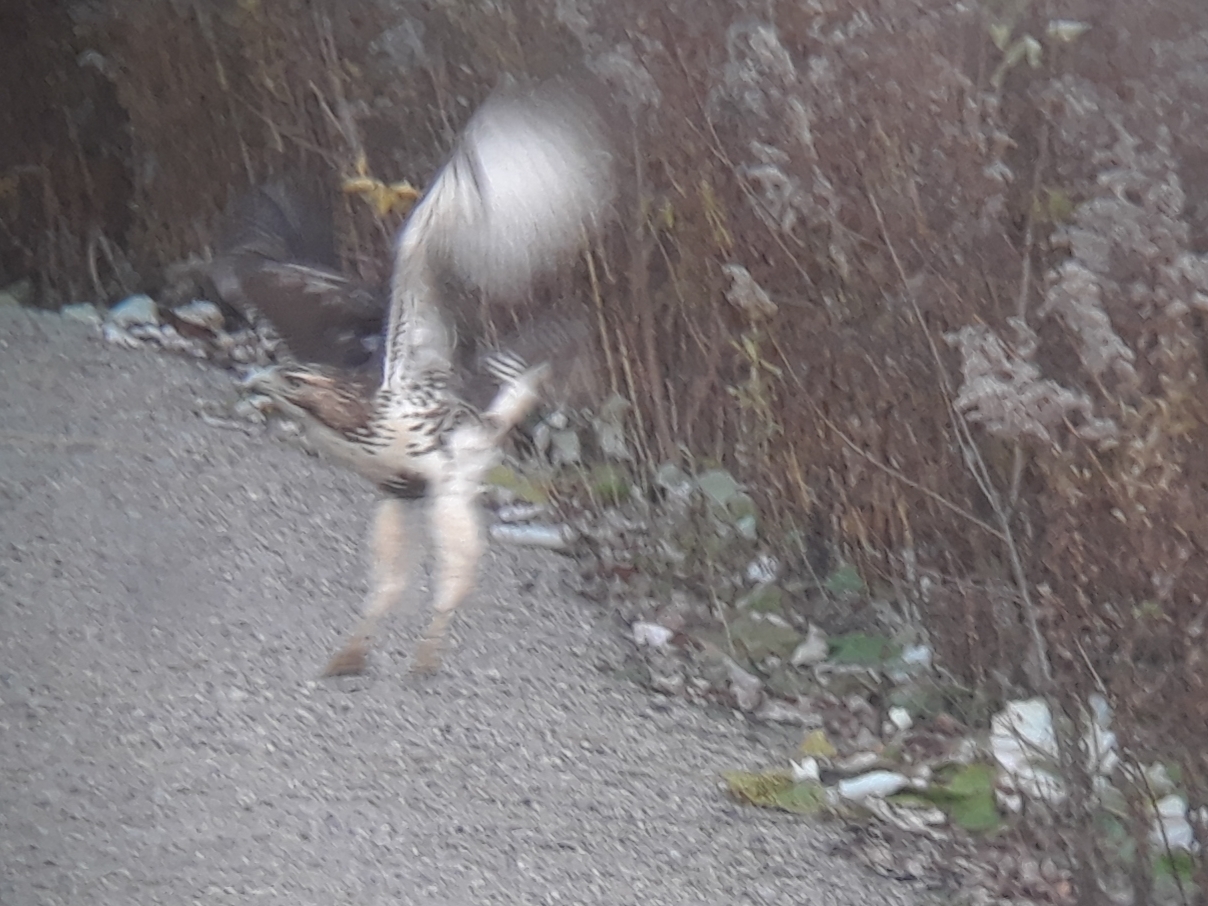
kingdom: Animalia
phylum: Chordata
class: Aves
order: Accipitriformes
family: Accipitridae
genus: Buteo
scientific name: Buteo jamaicensis
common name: Red-tailed hawk
